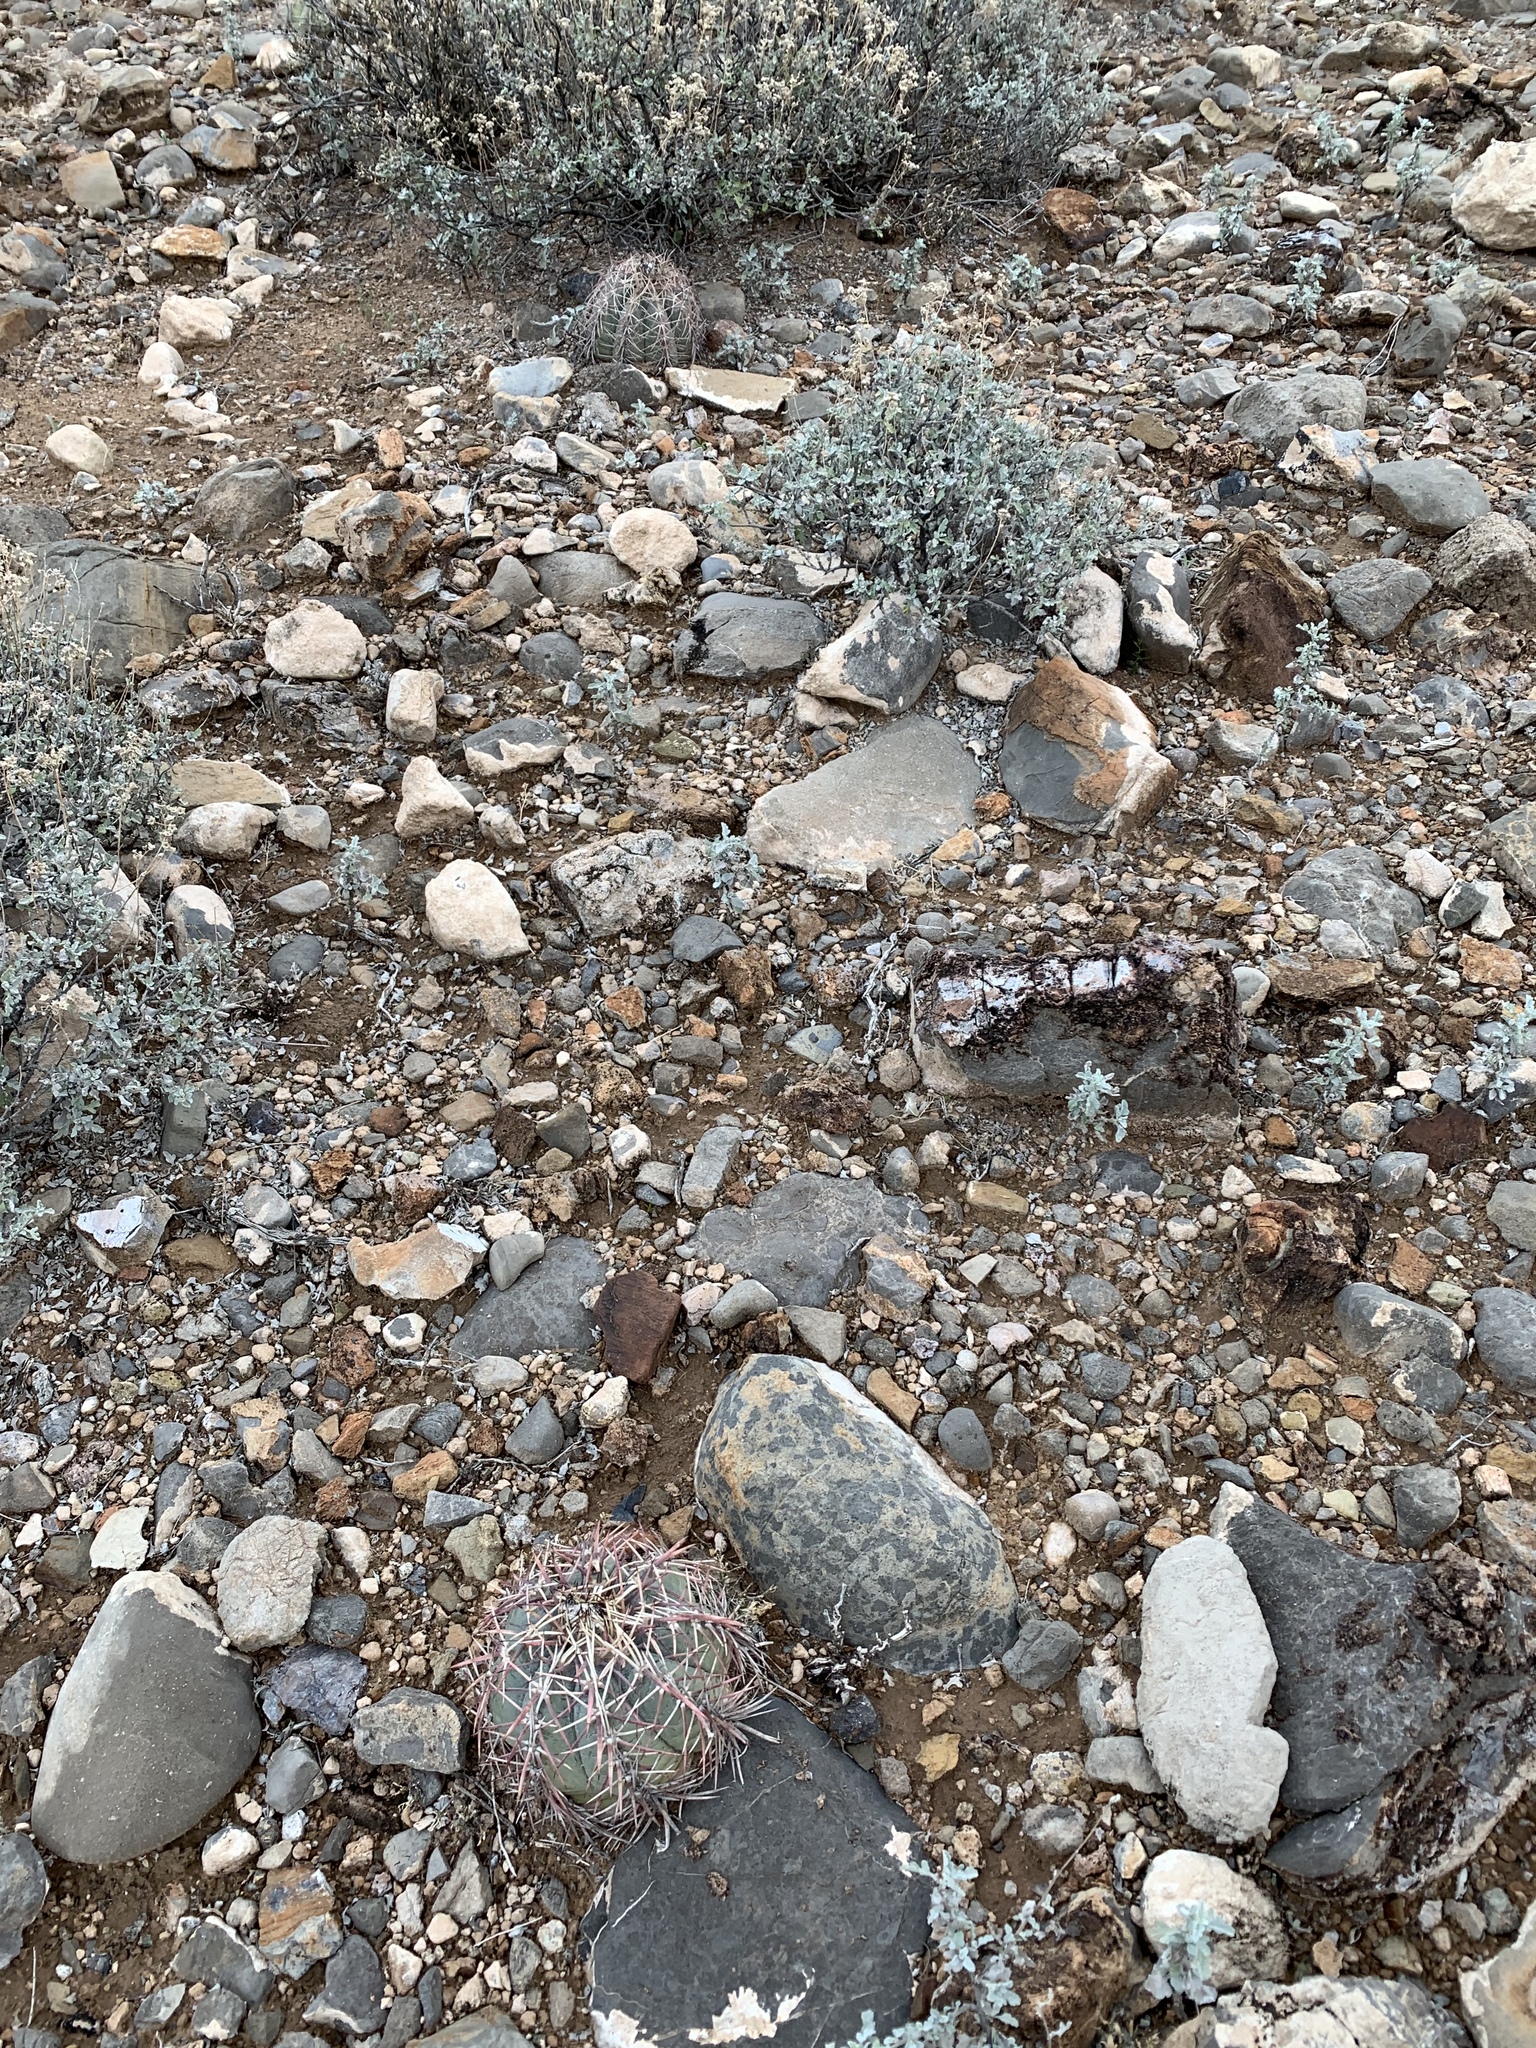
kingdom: Plantae
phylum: Tracheophyta
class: Magnoliopsida
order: Caryophyllales
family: Cactaceae
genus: Echinocactus
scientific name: Echinocactus horizonthalonius
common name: Devilshead
